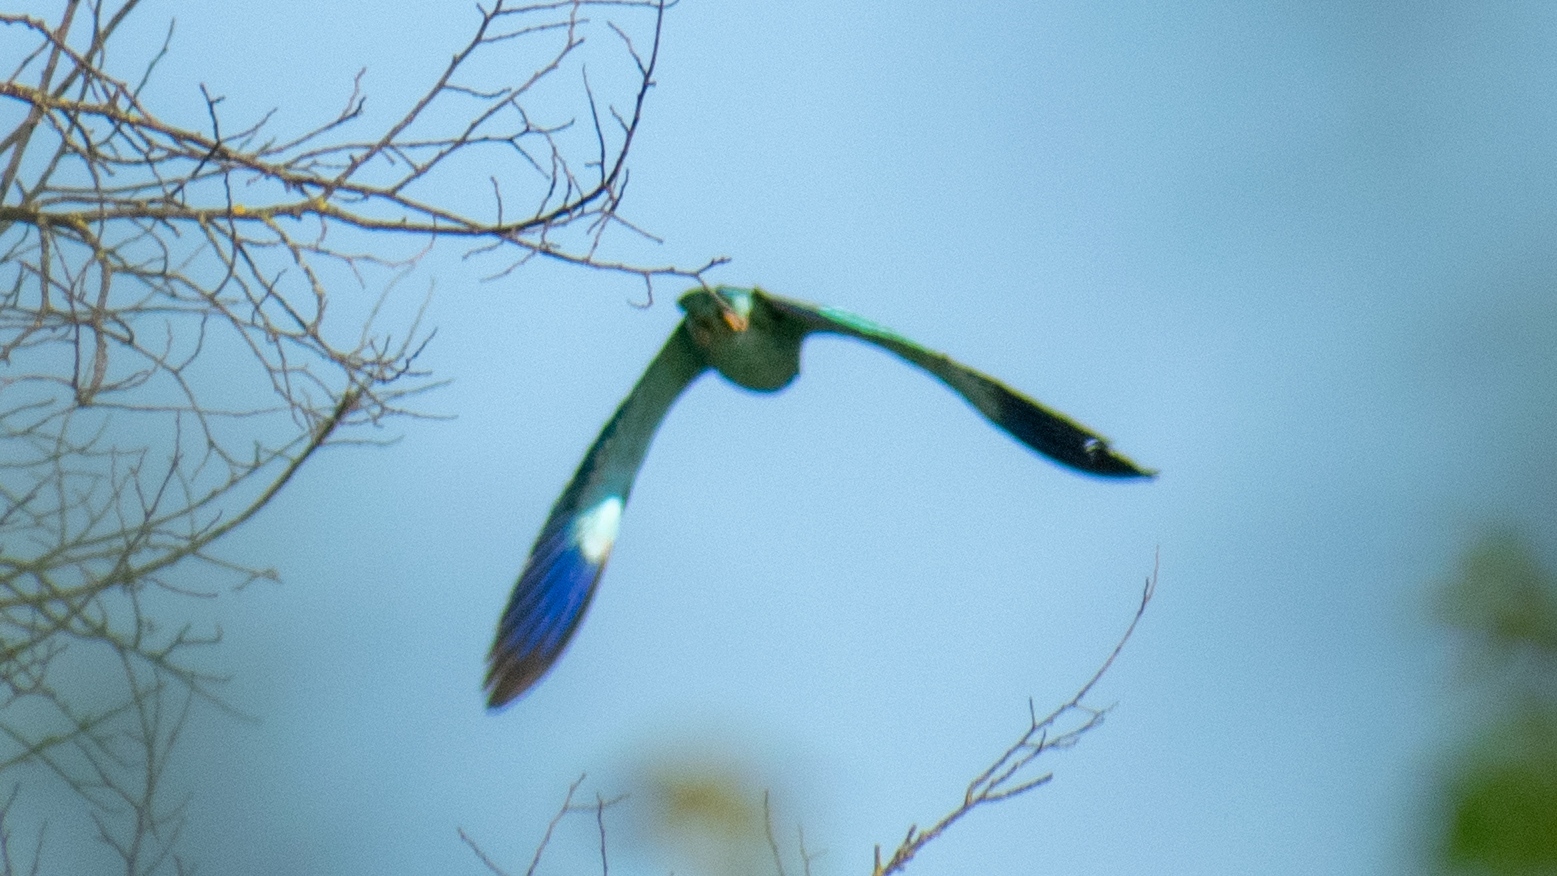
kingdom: Animalia
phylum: Chordata
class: Aves
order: Coraciiformes
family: Coraciidae
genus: Coracias
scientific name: Coracias garrulus
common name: European roller
